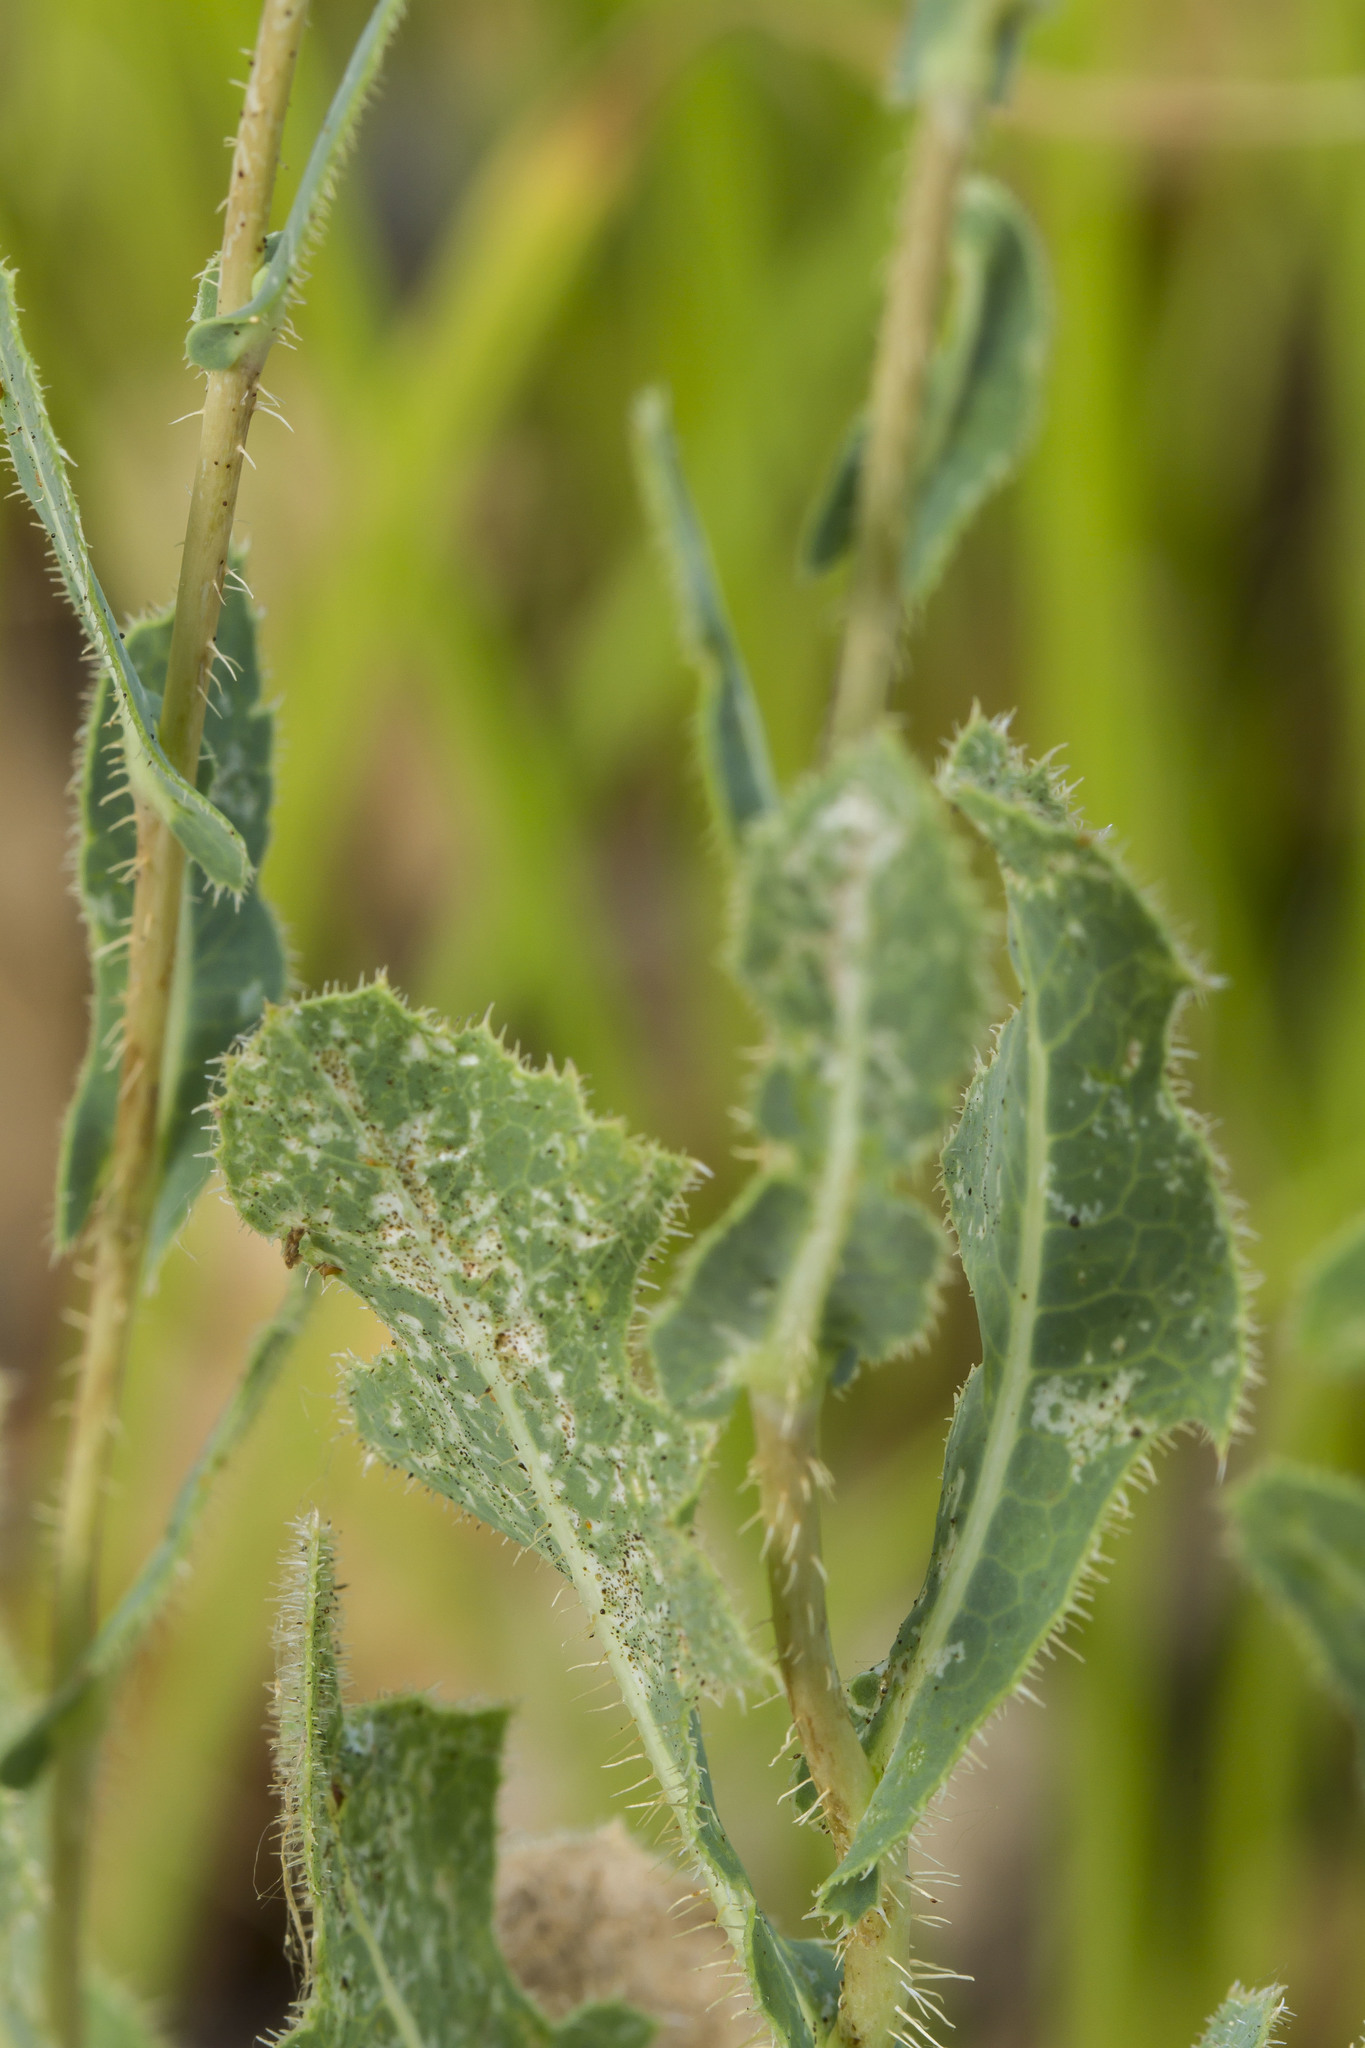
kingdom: Plantae
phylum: Tracheophyta
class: Magnoliopsida
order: Asterales
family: Asteraceae
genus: Lactuca
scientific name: Lactuca serriola
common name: Prickly lettuce
